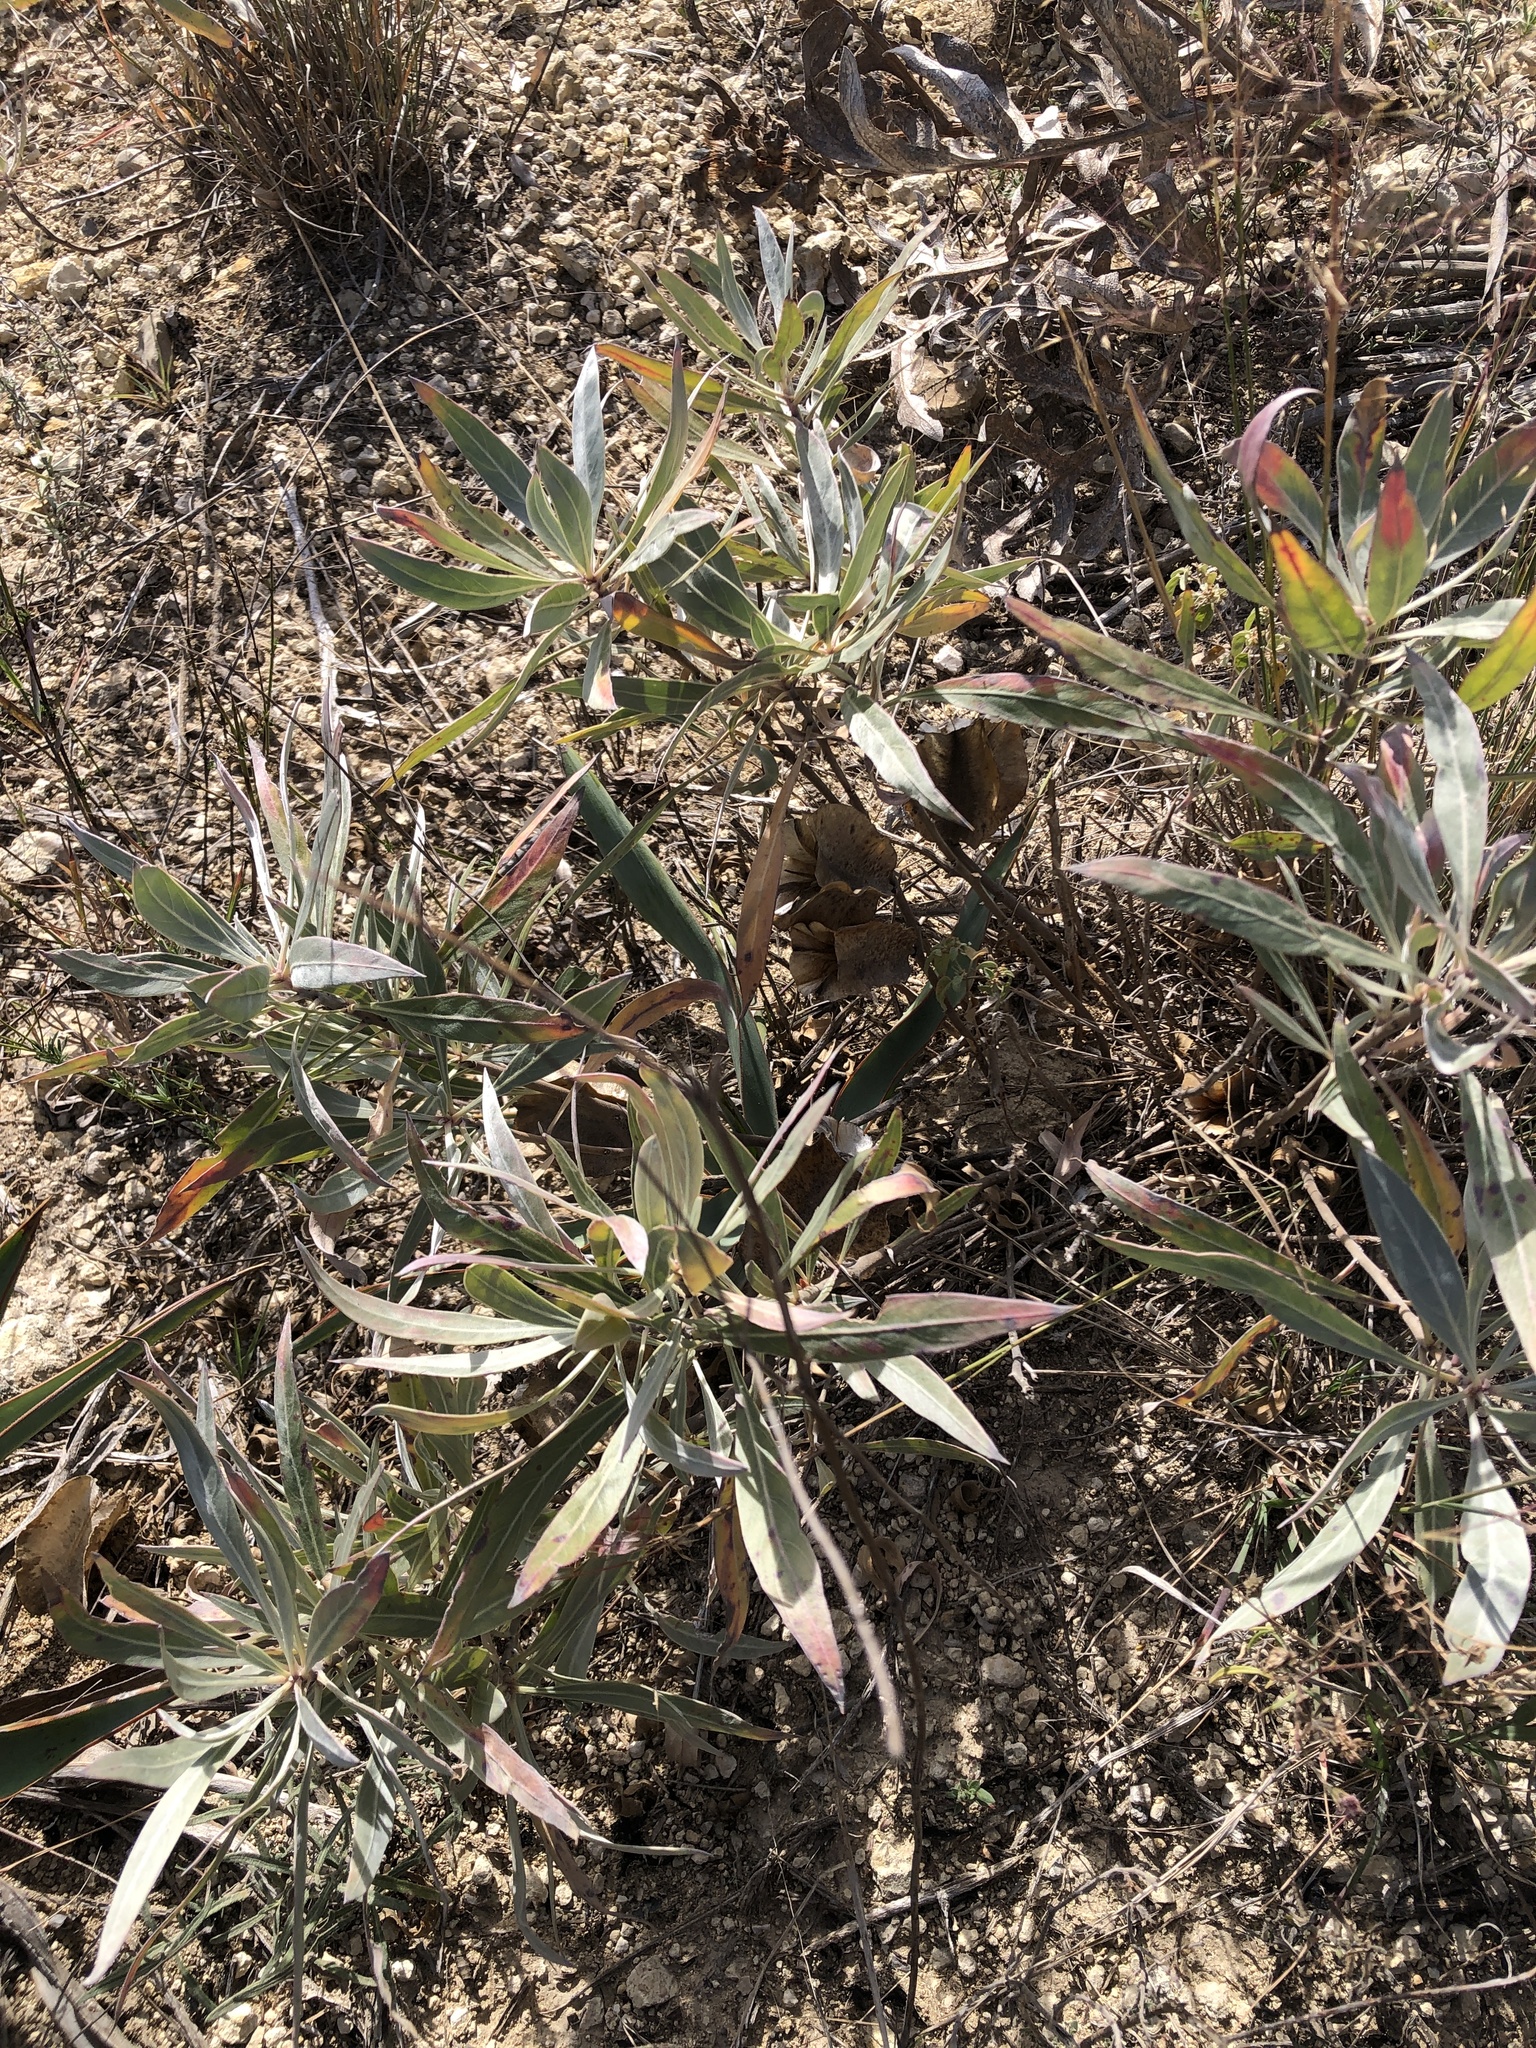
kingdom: Plantae
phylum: Tracheophyta
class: Magnoliopsida
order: Myrtales
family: Onagraceae
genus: Oenothera
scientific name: Oenothera macrocarpa
